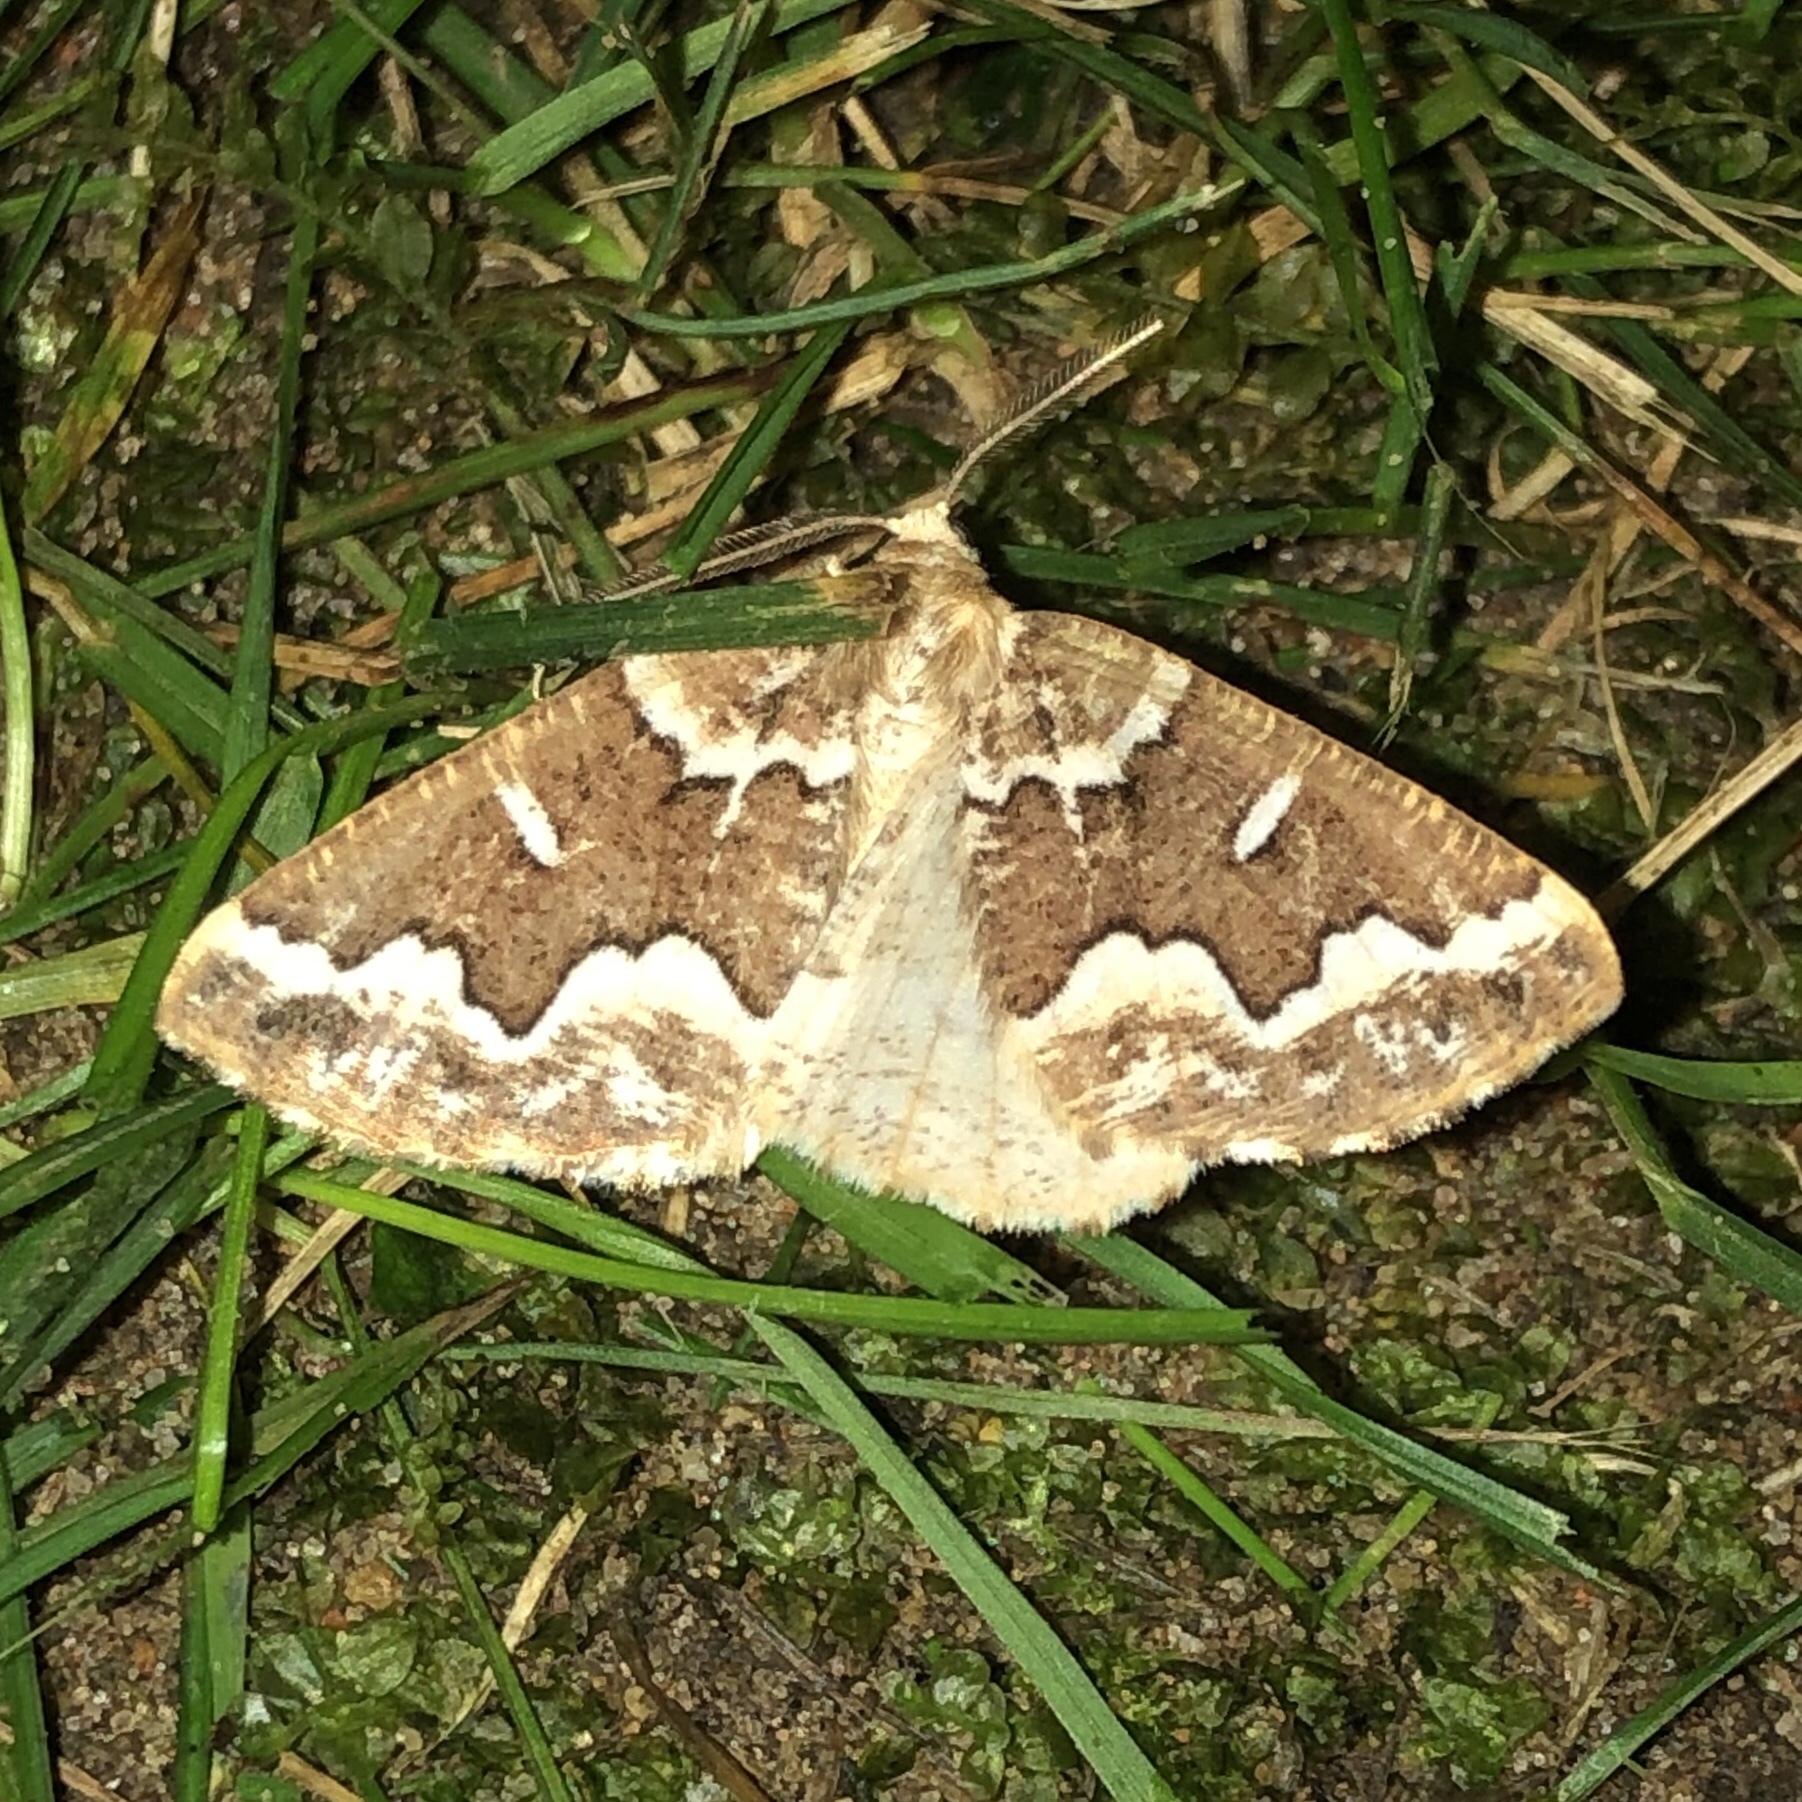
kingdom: Animalia
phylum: Arthropoda
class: Insecta
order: Lepidoptera
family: Geometridae
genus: Caripeta
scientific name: Caripeta divisata
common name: Gray spruce looper
